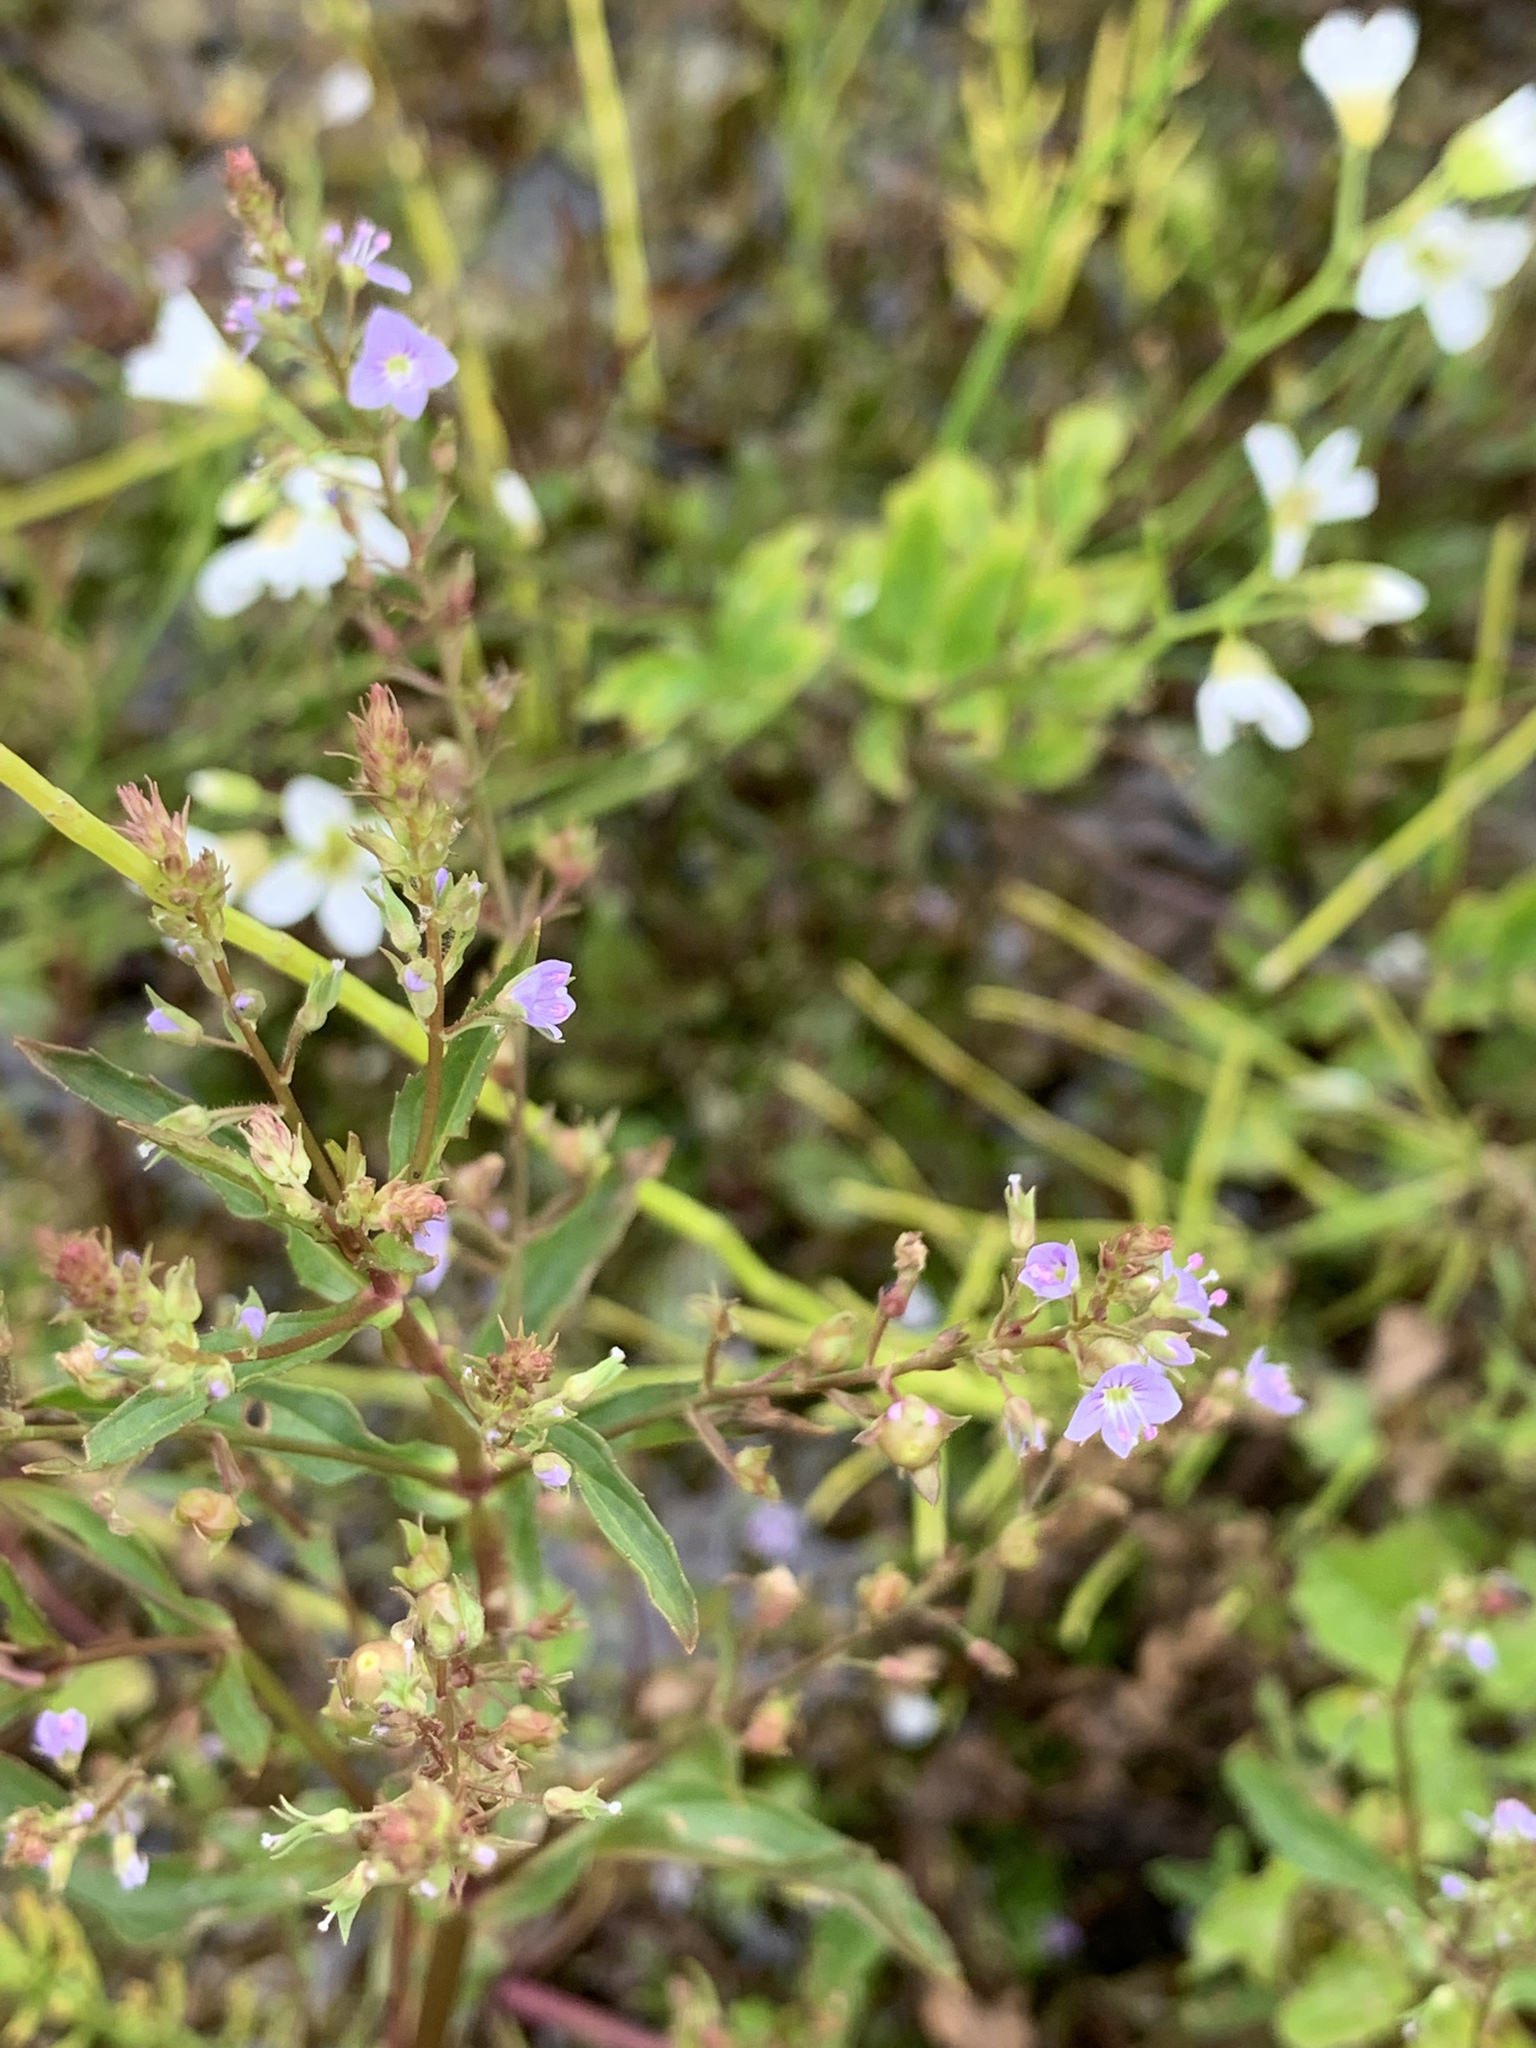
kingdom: Plantae
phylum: Tracheophyta
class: Magnoliopsida
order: Lamiales
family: Plantaginaceae
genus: Veronica
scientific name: Veronica anagallis-aquatica
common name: Water speedwell
